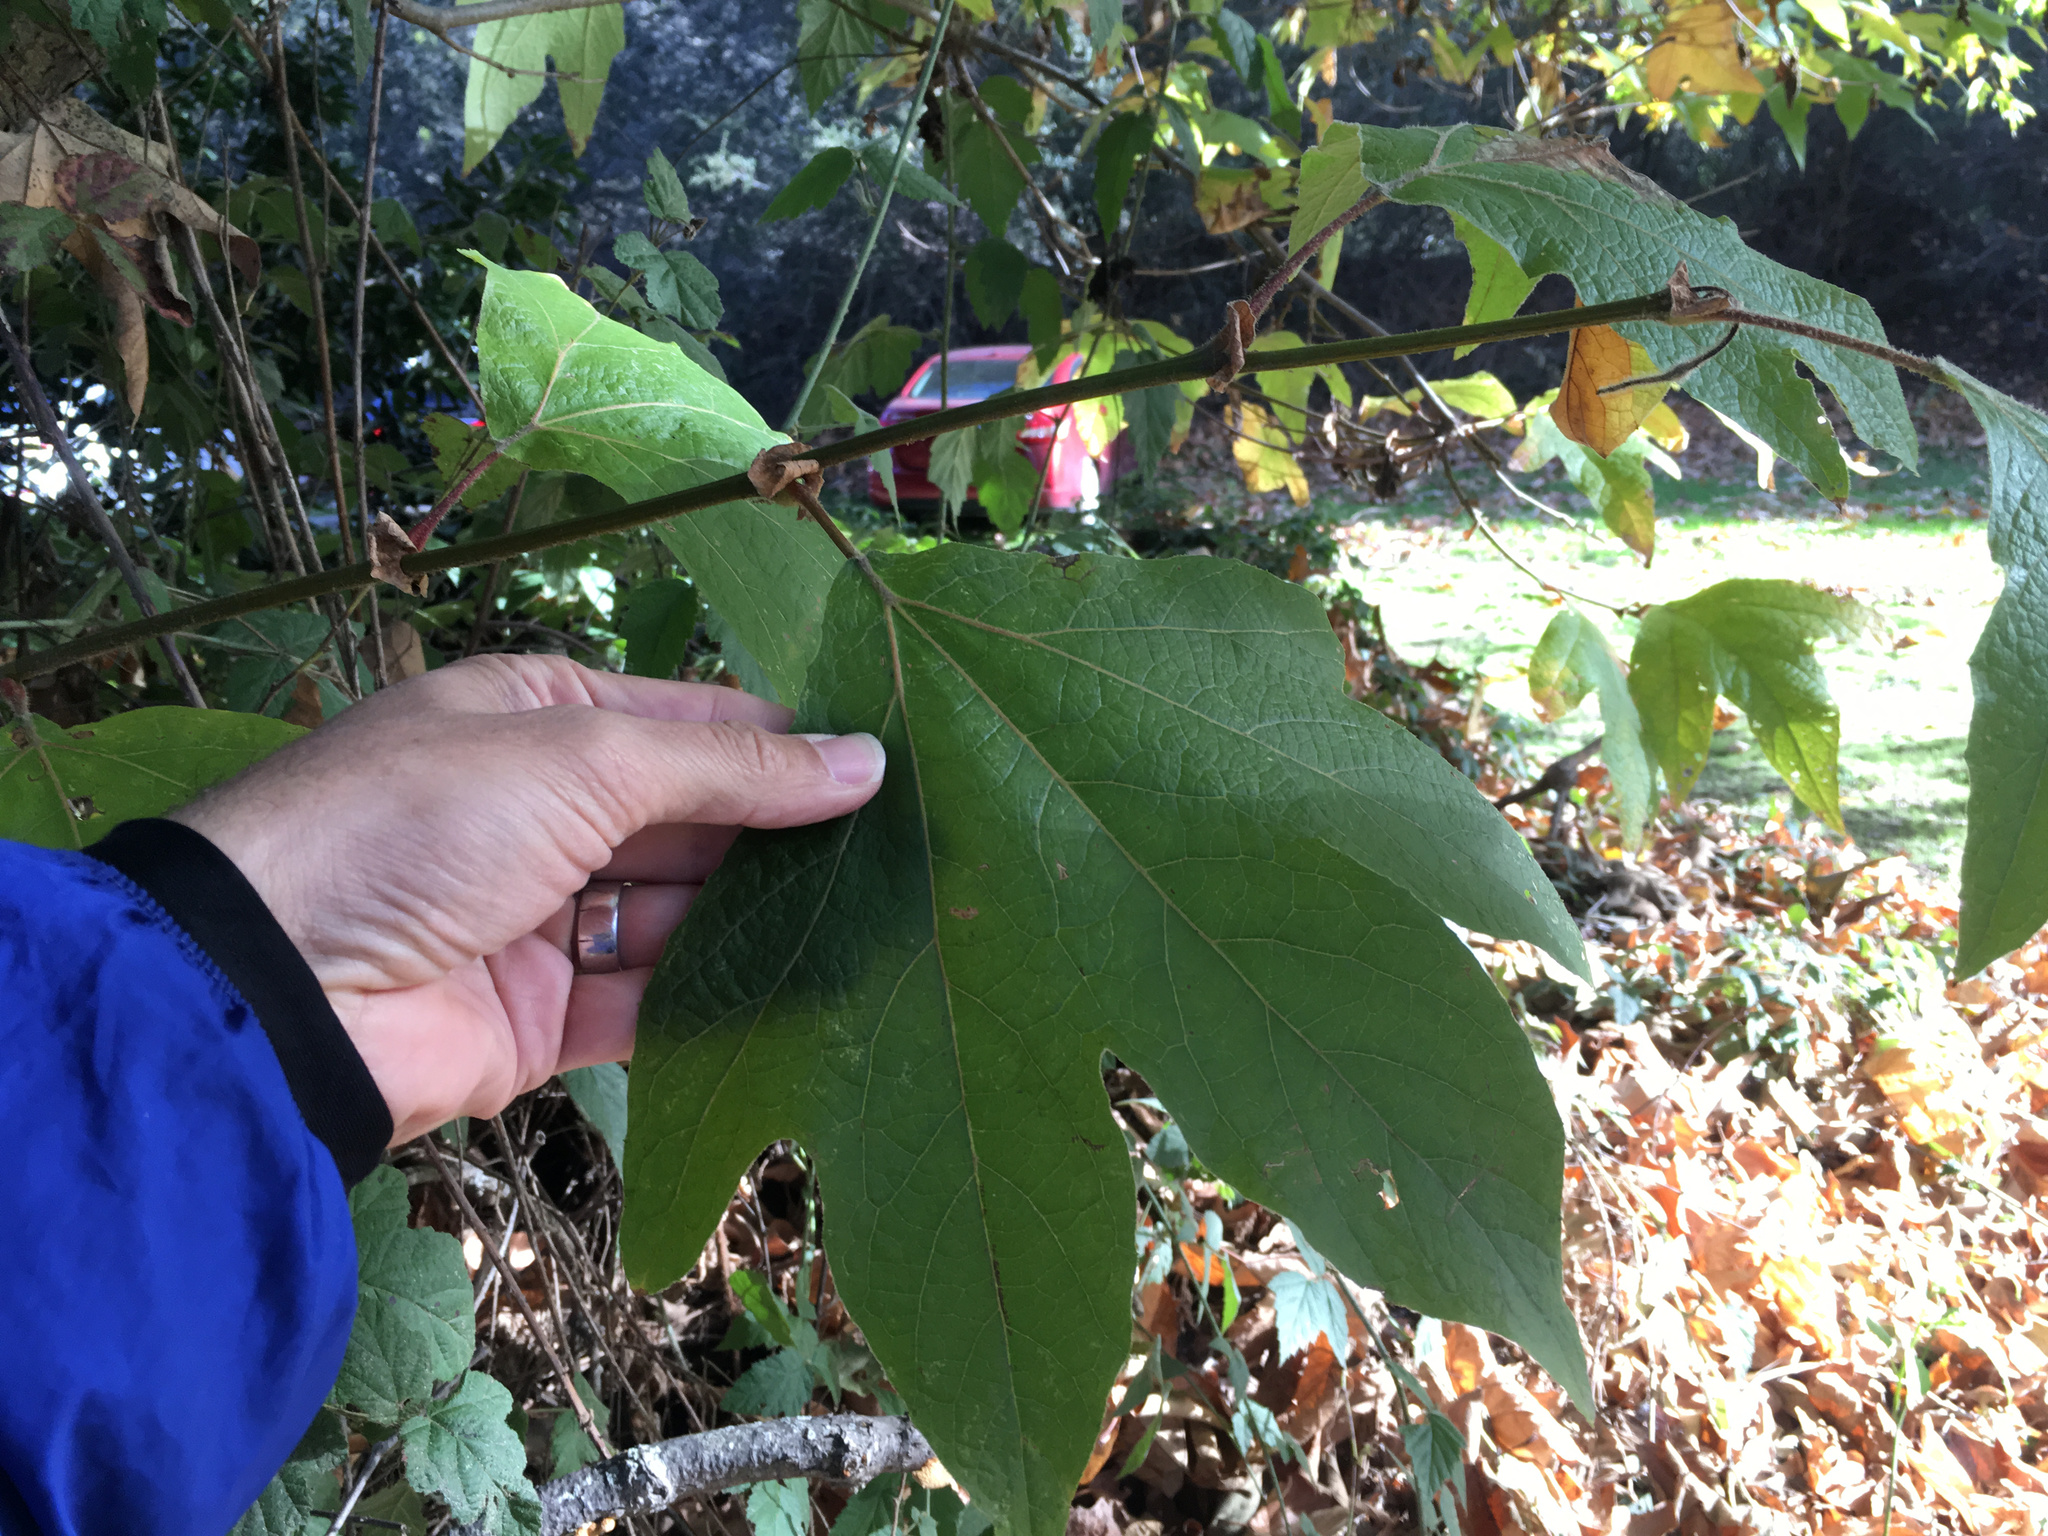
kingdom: Plantae
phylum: Tracheophyta
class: Magnoliopsida
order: Proteales
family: Platanaceae
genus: Platanus
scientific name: Platanus racemosa
